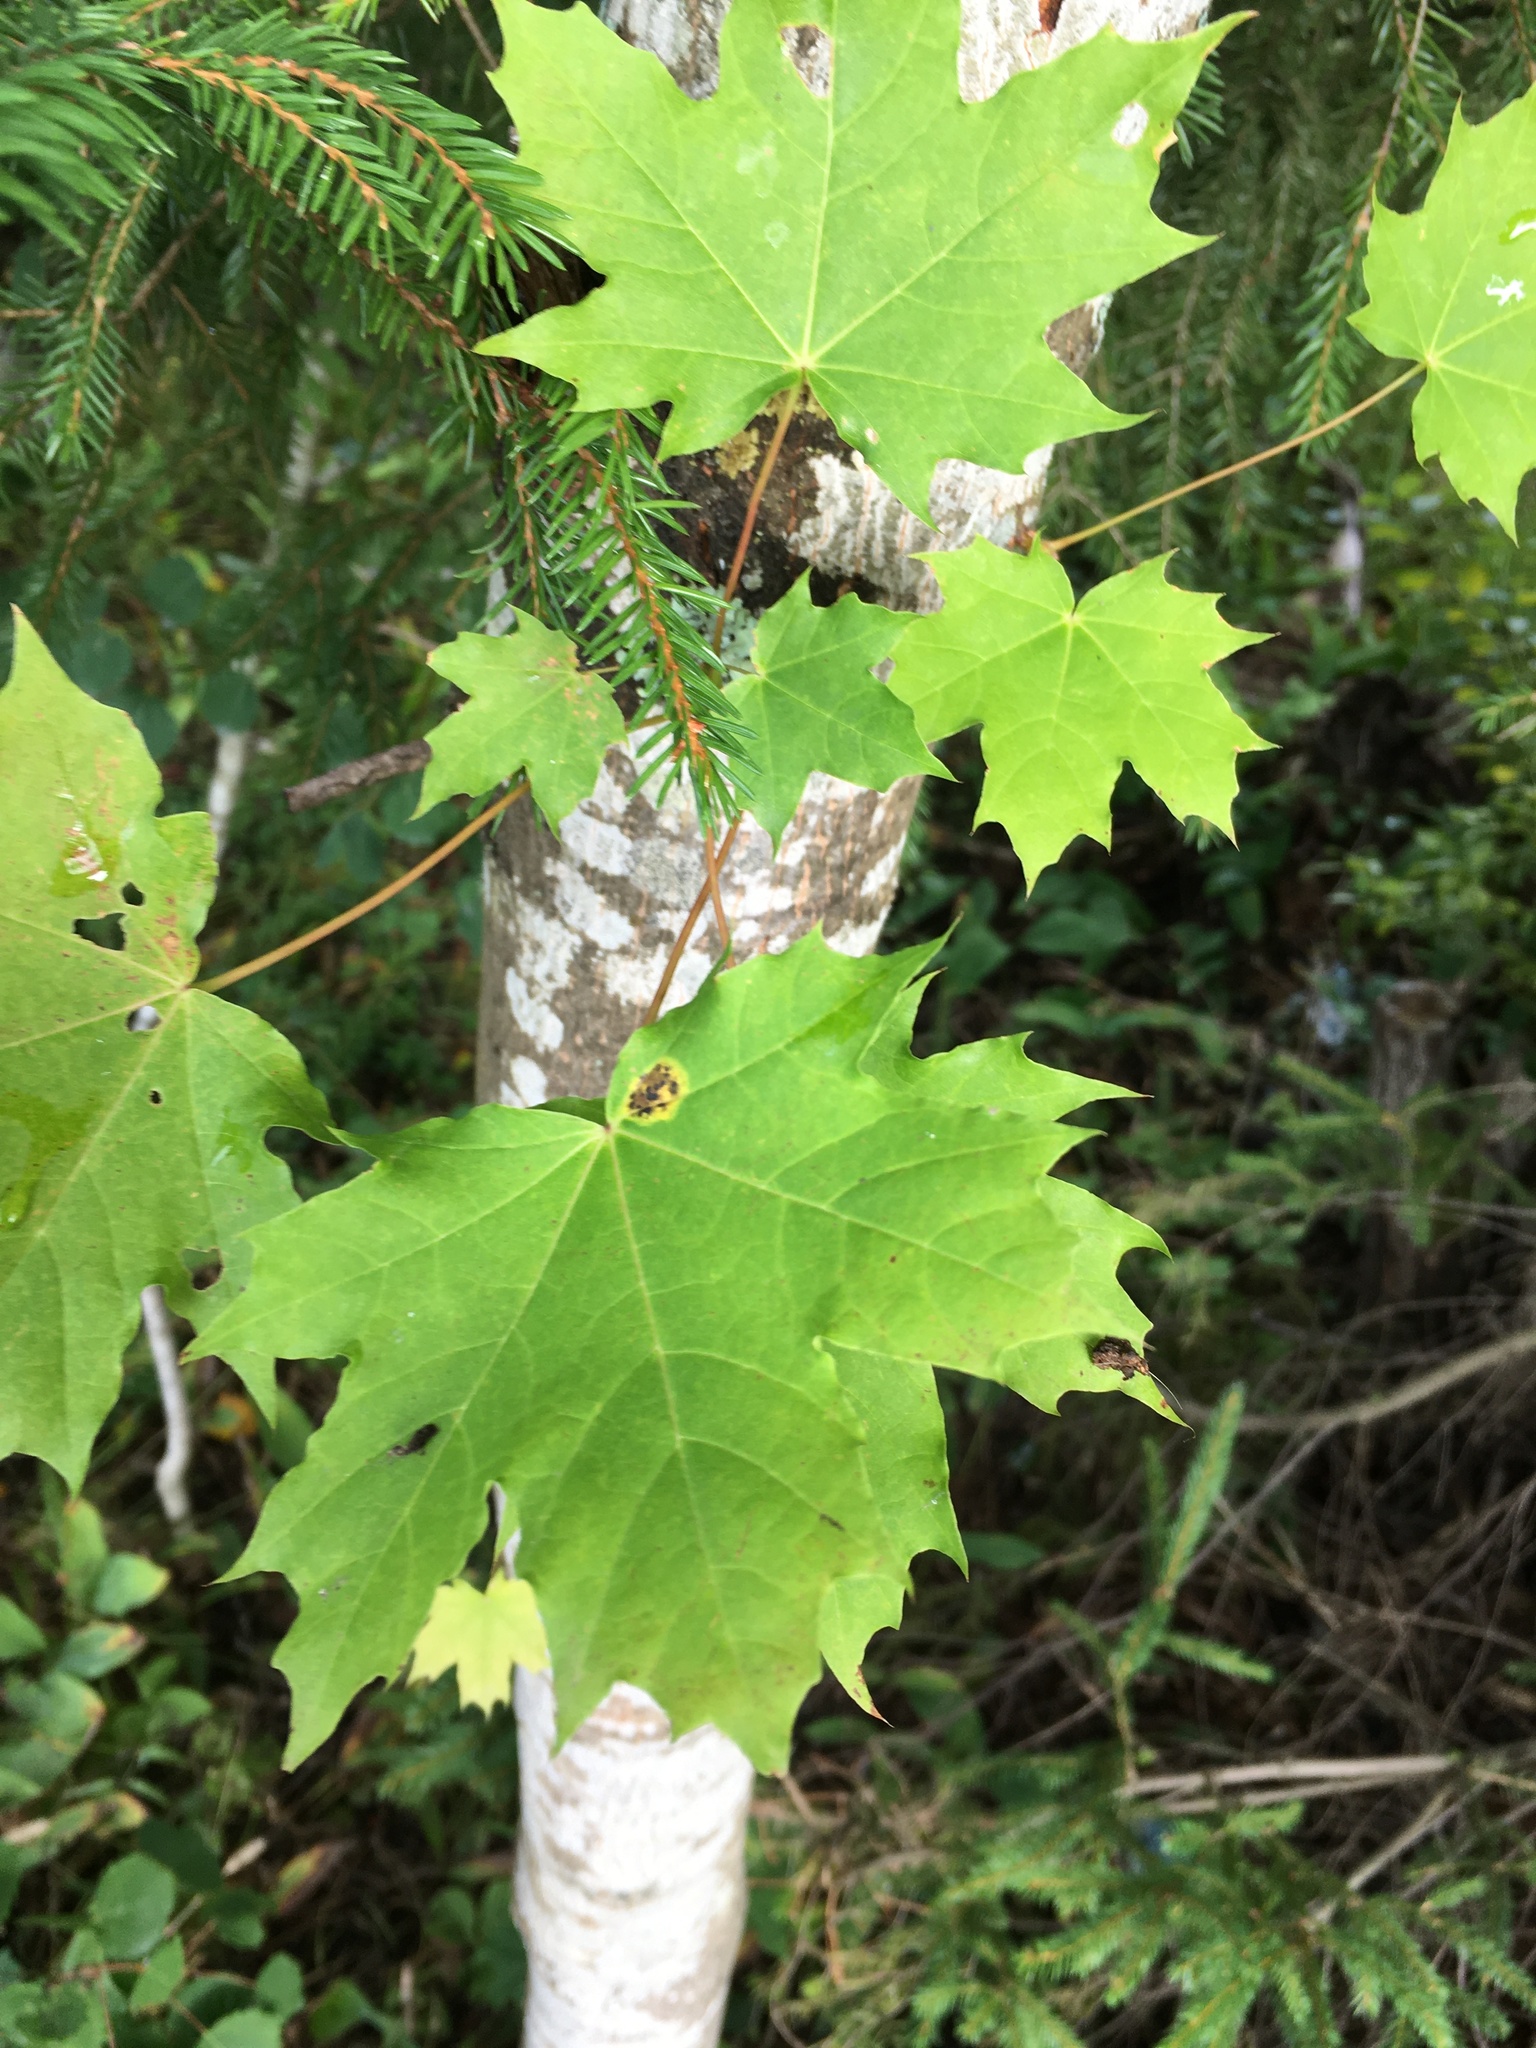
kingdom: Plantae
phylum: Tracheophyta
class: Magnoliopsida
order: Sapindales
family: Sapindaceae
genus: Acer
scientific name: Acer platanoides
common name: Norway maple
